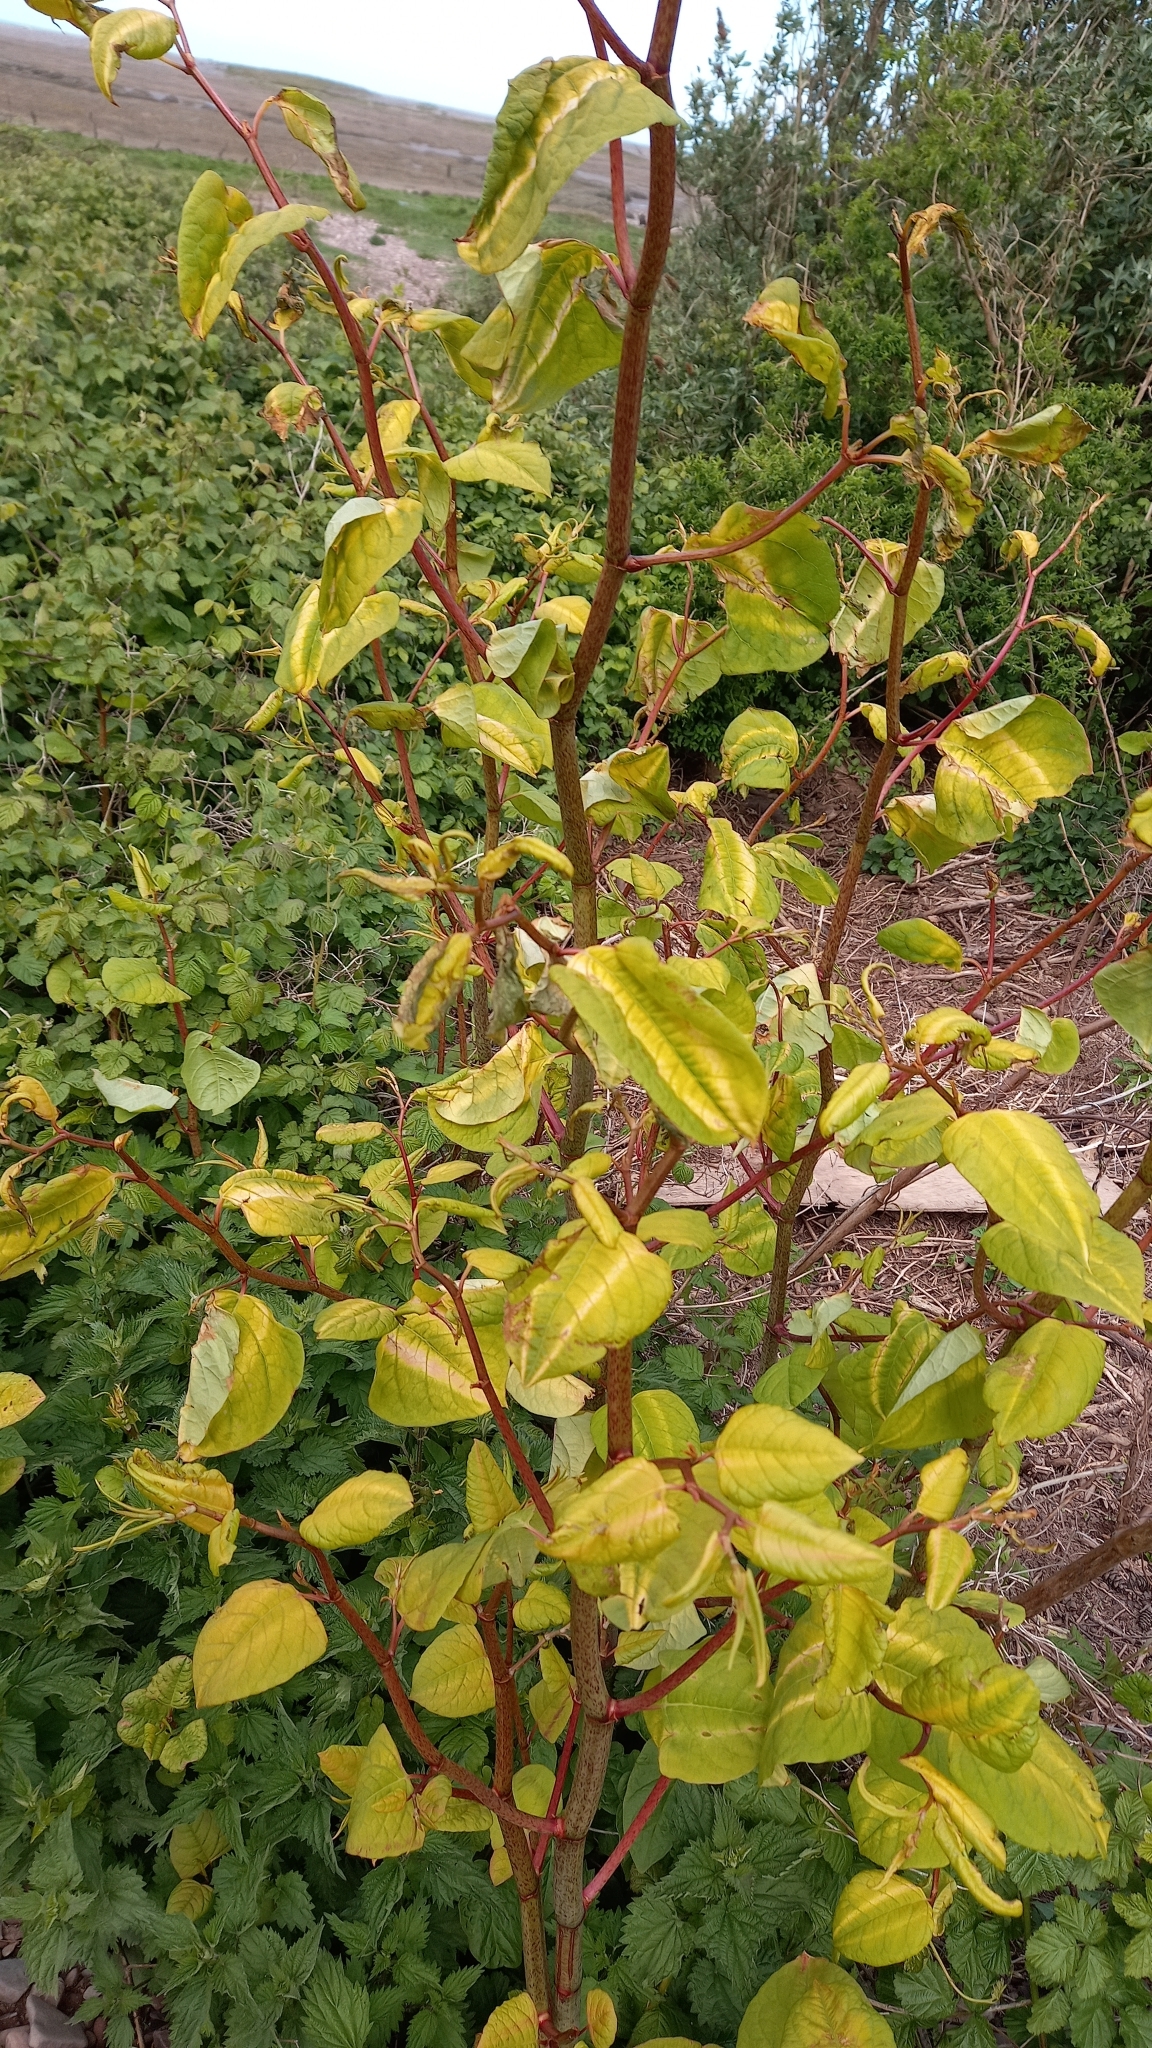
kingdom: Plantae
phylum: Tracheophyta
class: Magnoliopsida
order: Caryophyllales
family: Polygonaceae
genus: Reynoutria
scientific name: Reynoutria japonica
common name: Japanese knotweed
